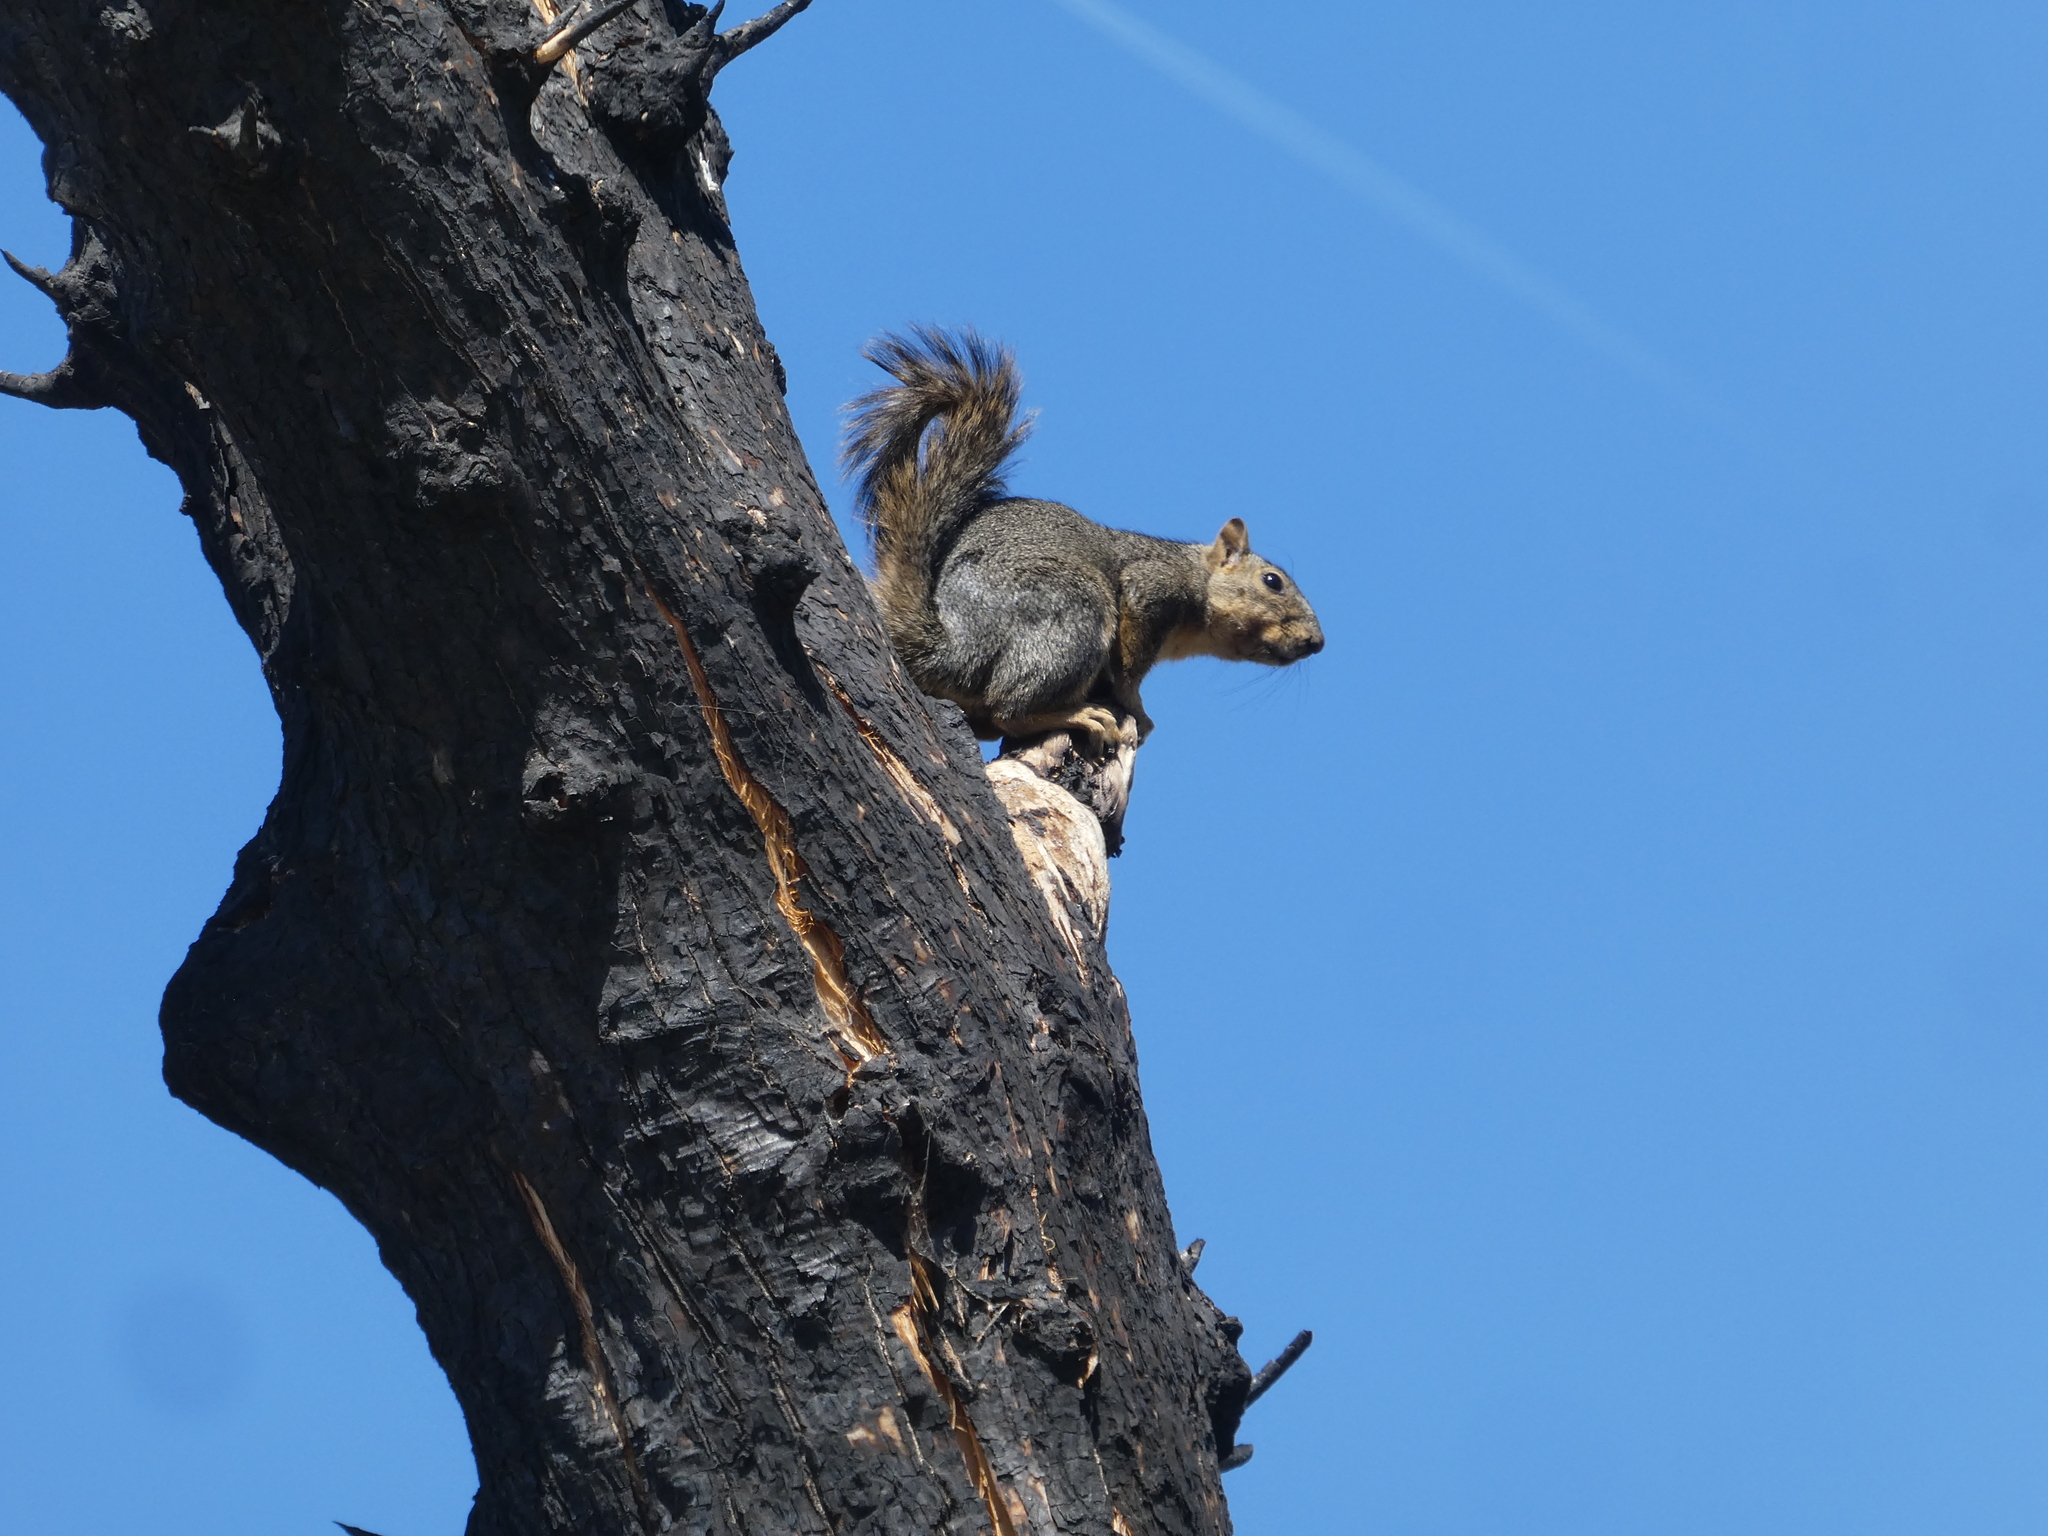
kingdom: Animalia
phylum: Chordata
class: Mammalia
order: Rodentia
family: Sciuridae
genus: Sciurus
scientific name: Sciurus niger
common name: Fox squirrel
